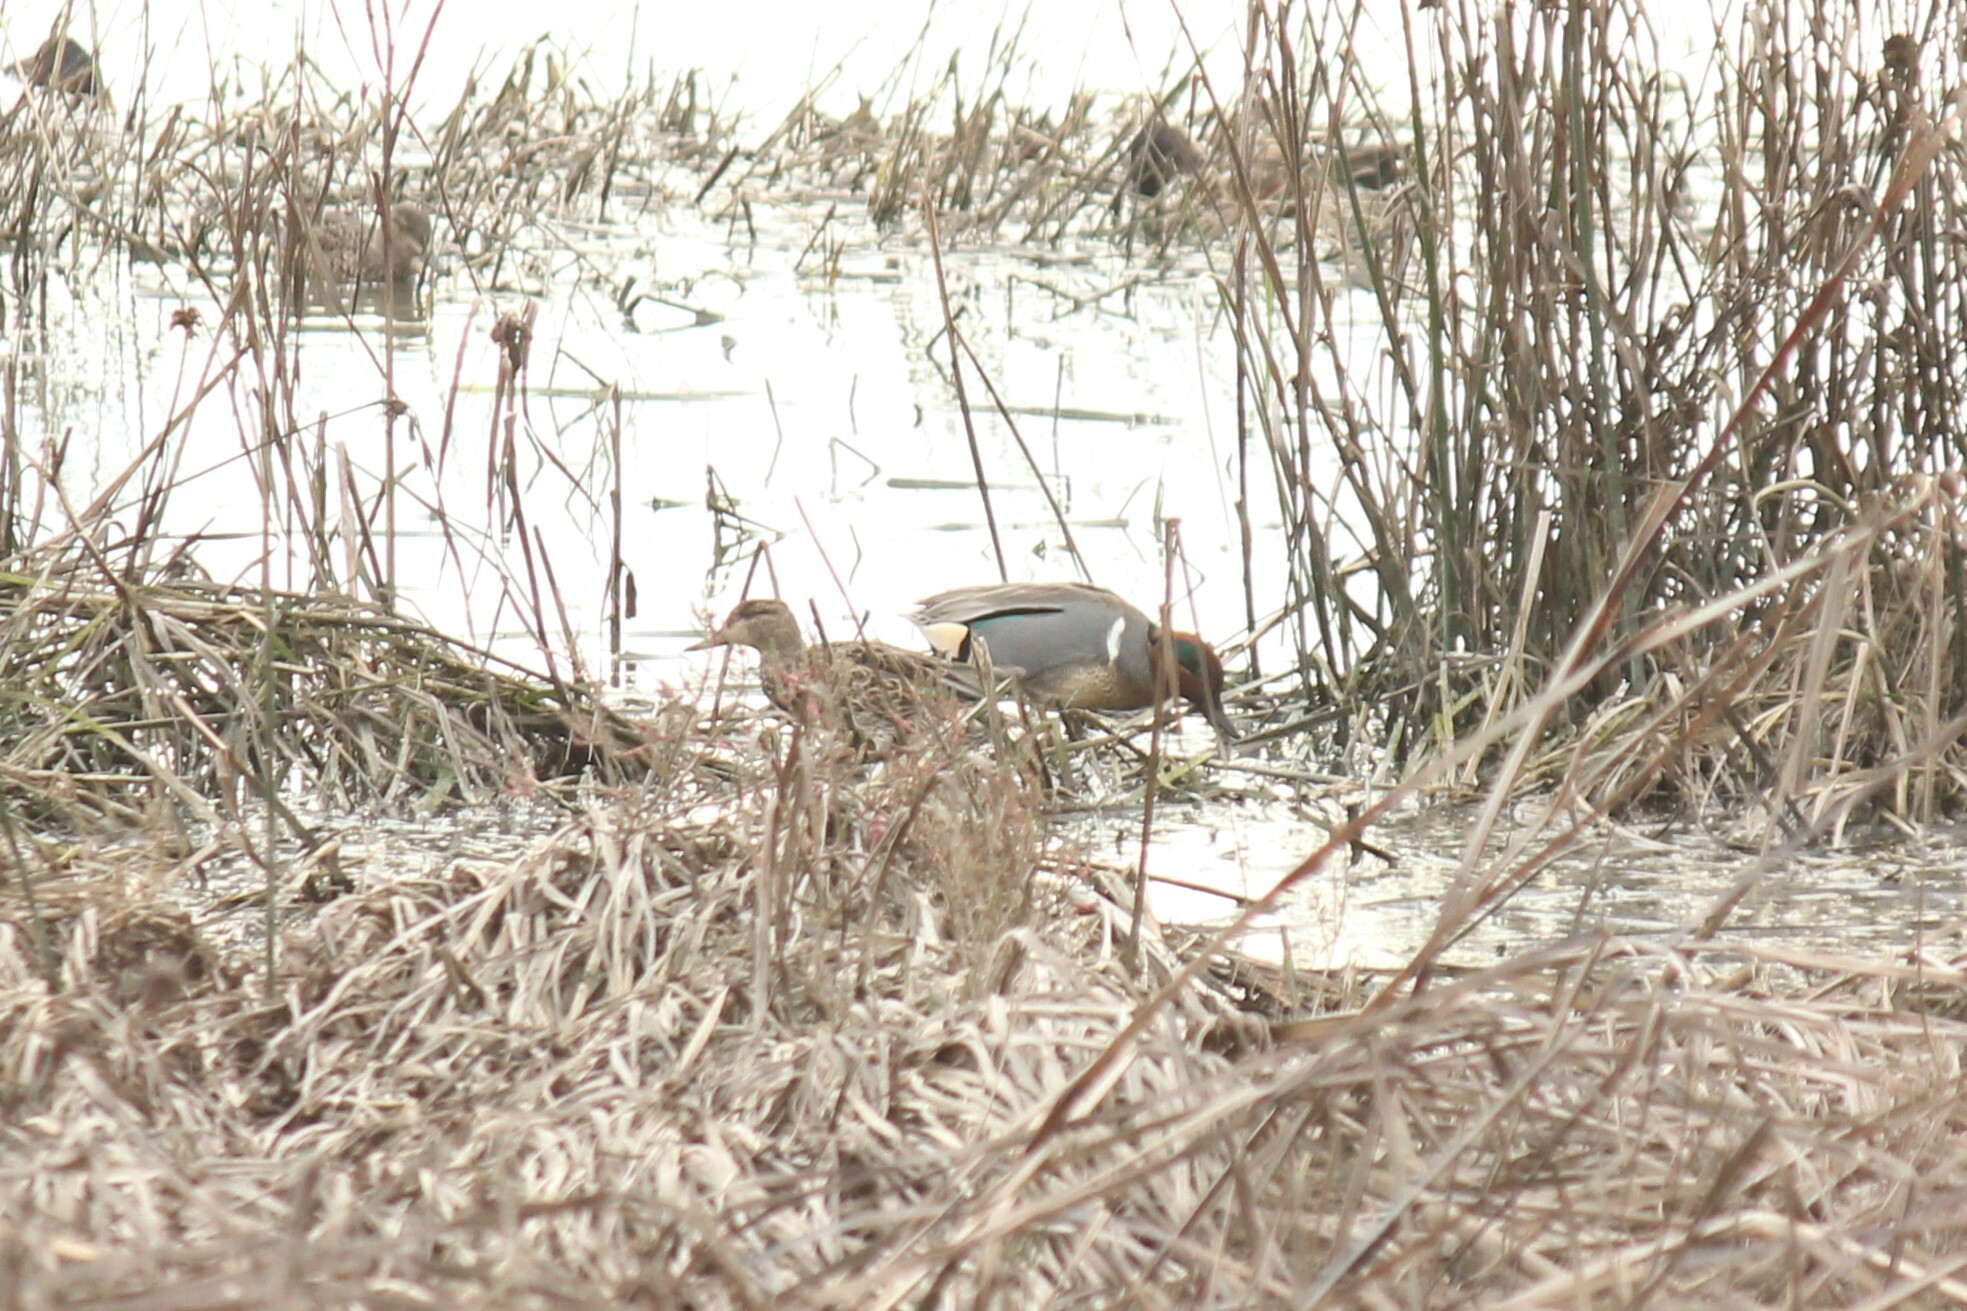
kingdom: Animalia
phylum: Chordata
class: Aves
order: Anseriformes
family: Anatidae
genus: Anas
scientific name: Anas crecca
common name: Eurasian teal
